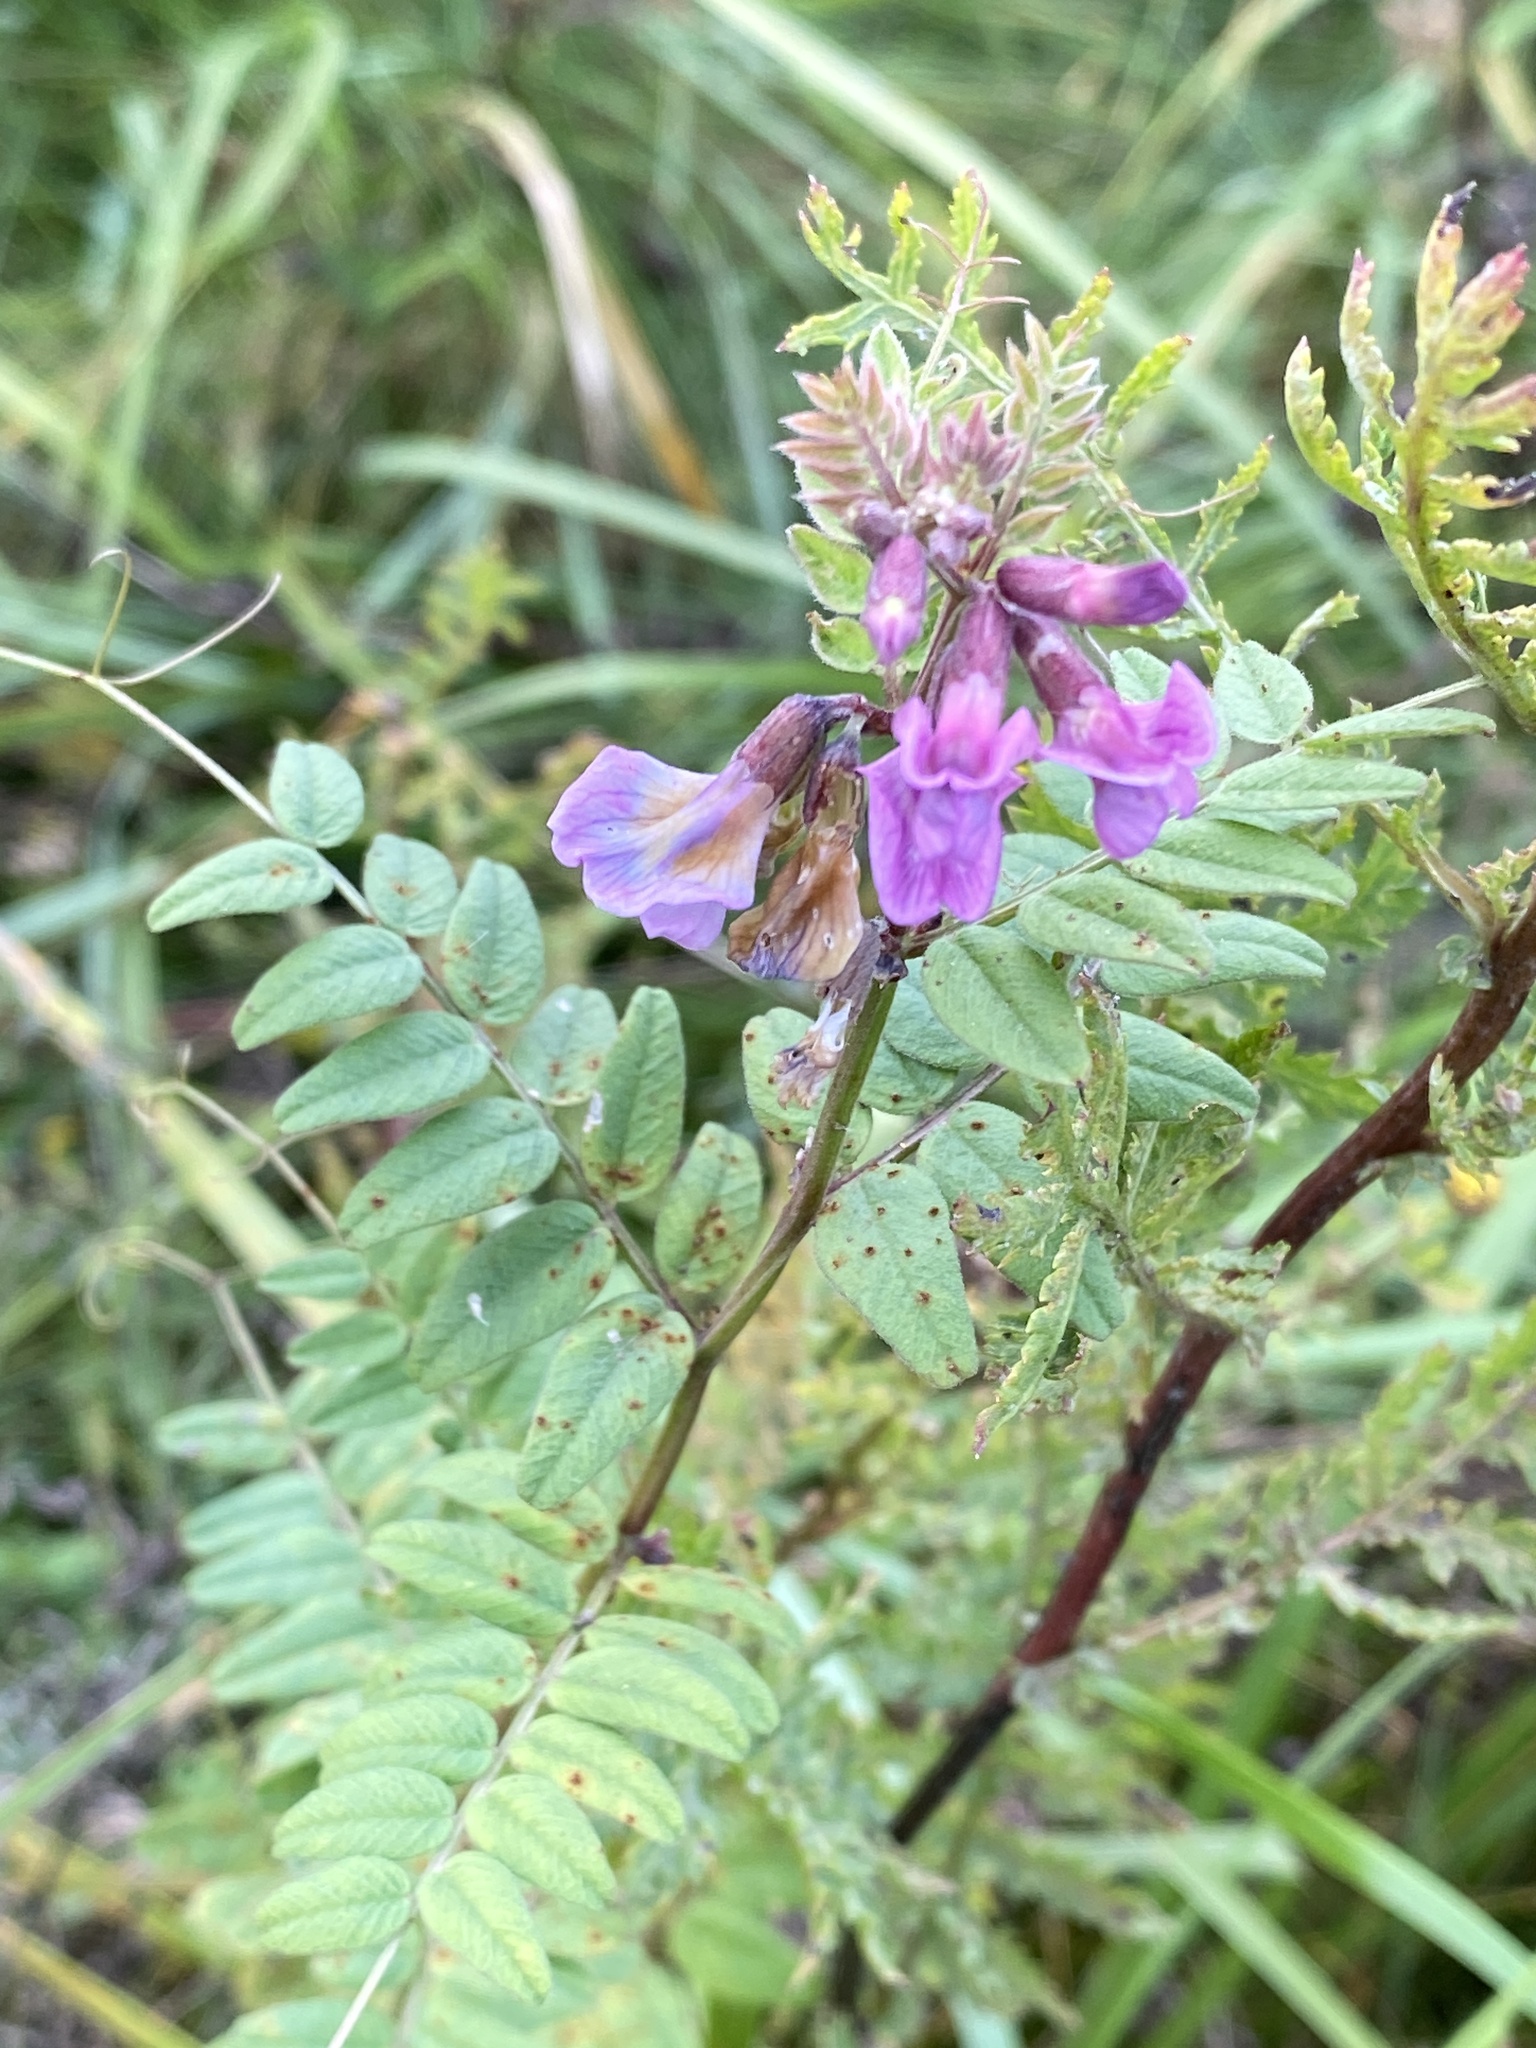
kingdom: Plantae
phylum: Tracheophyta
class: Magnoliopsida
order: Fabales
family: Fabaceae
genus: Vicia
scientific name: Vicia sepium
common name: Bush vetch
